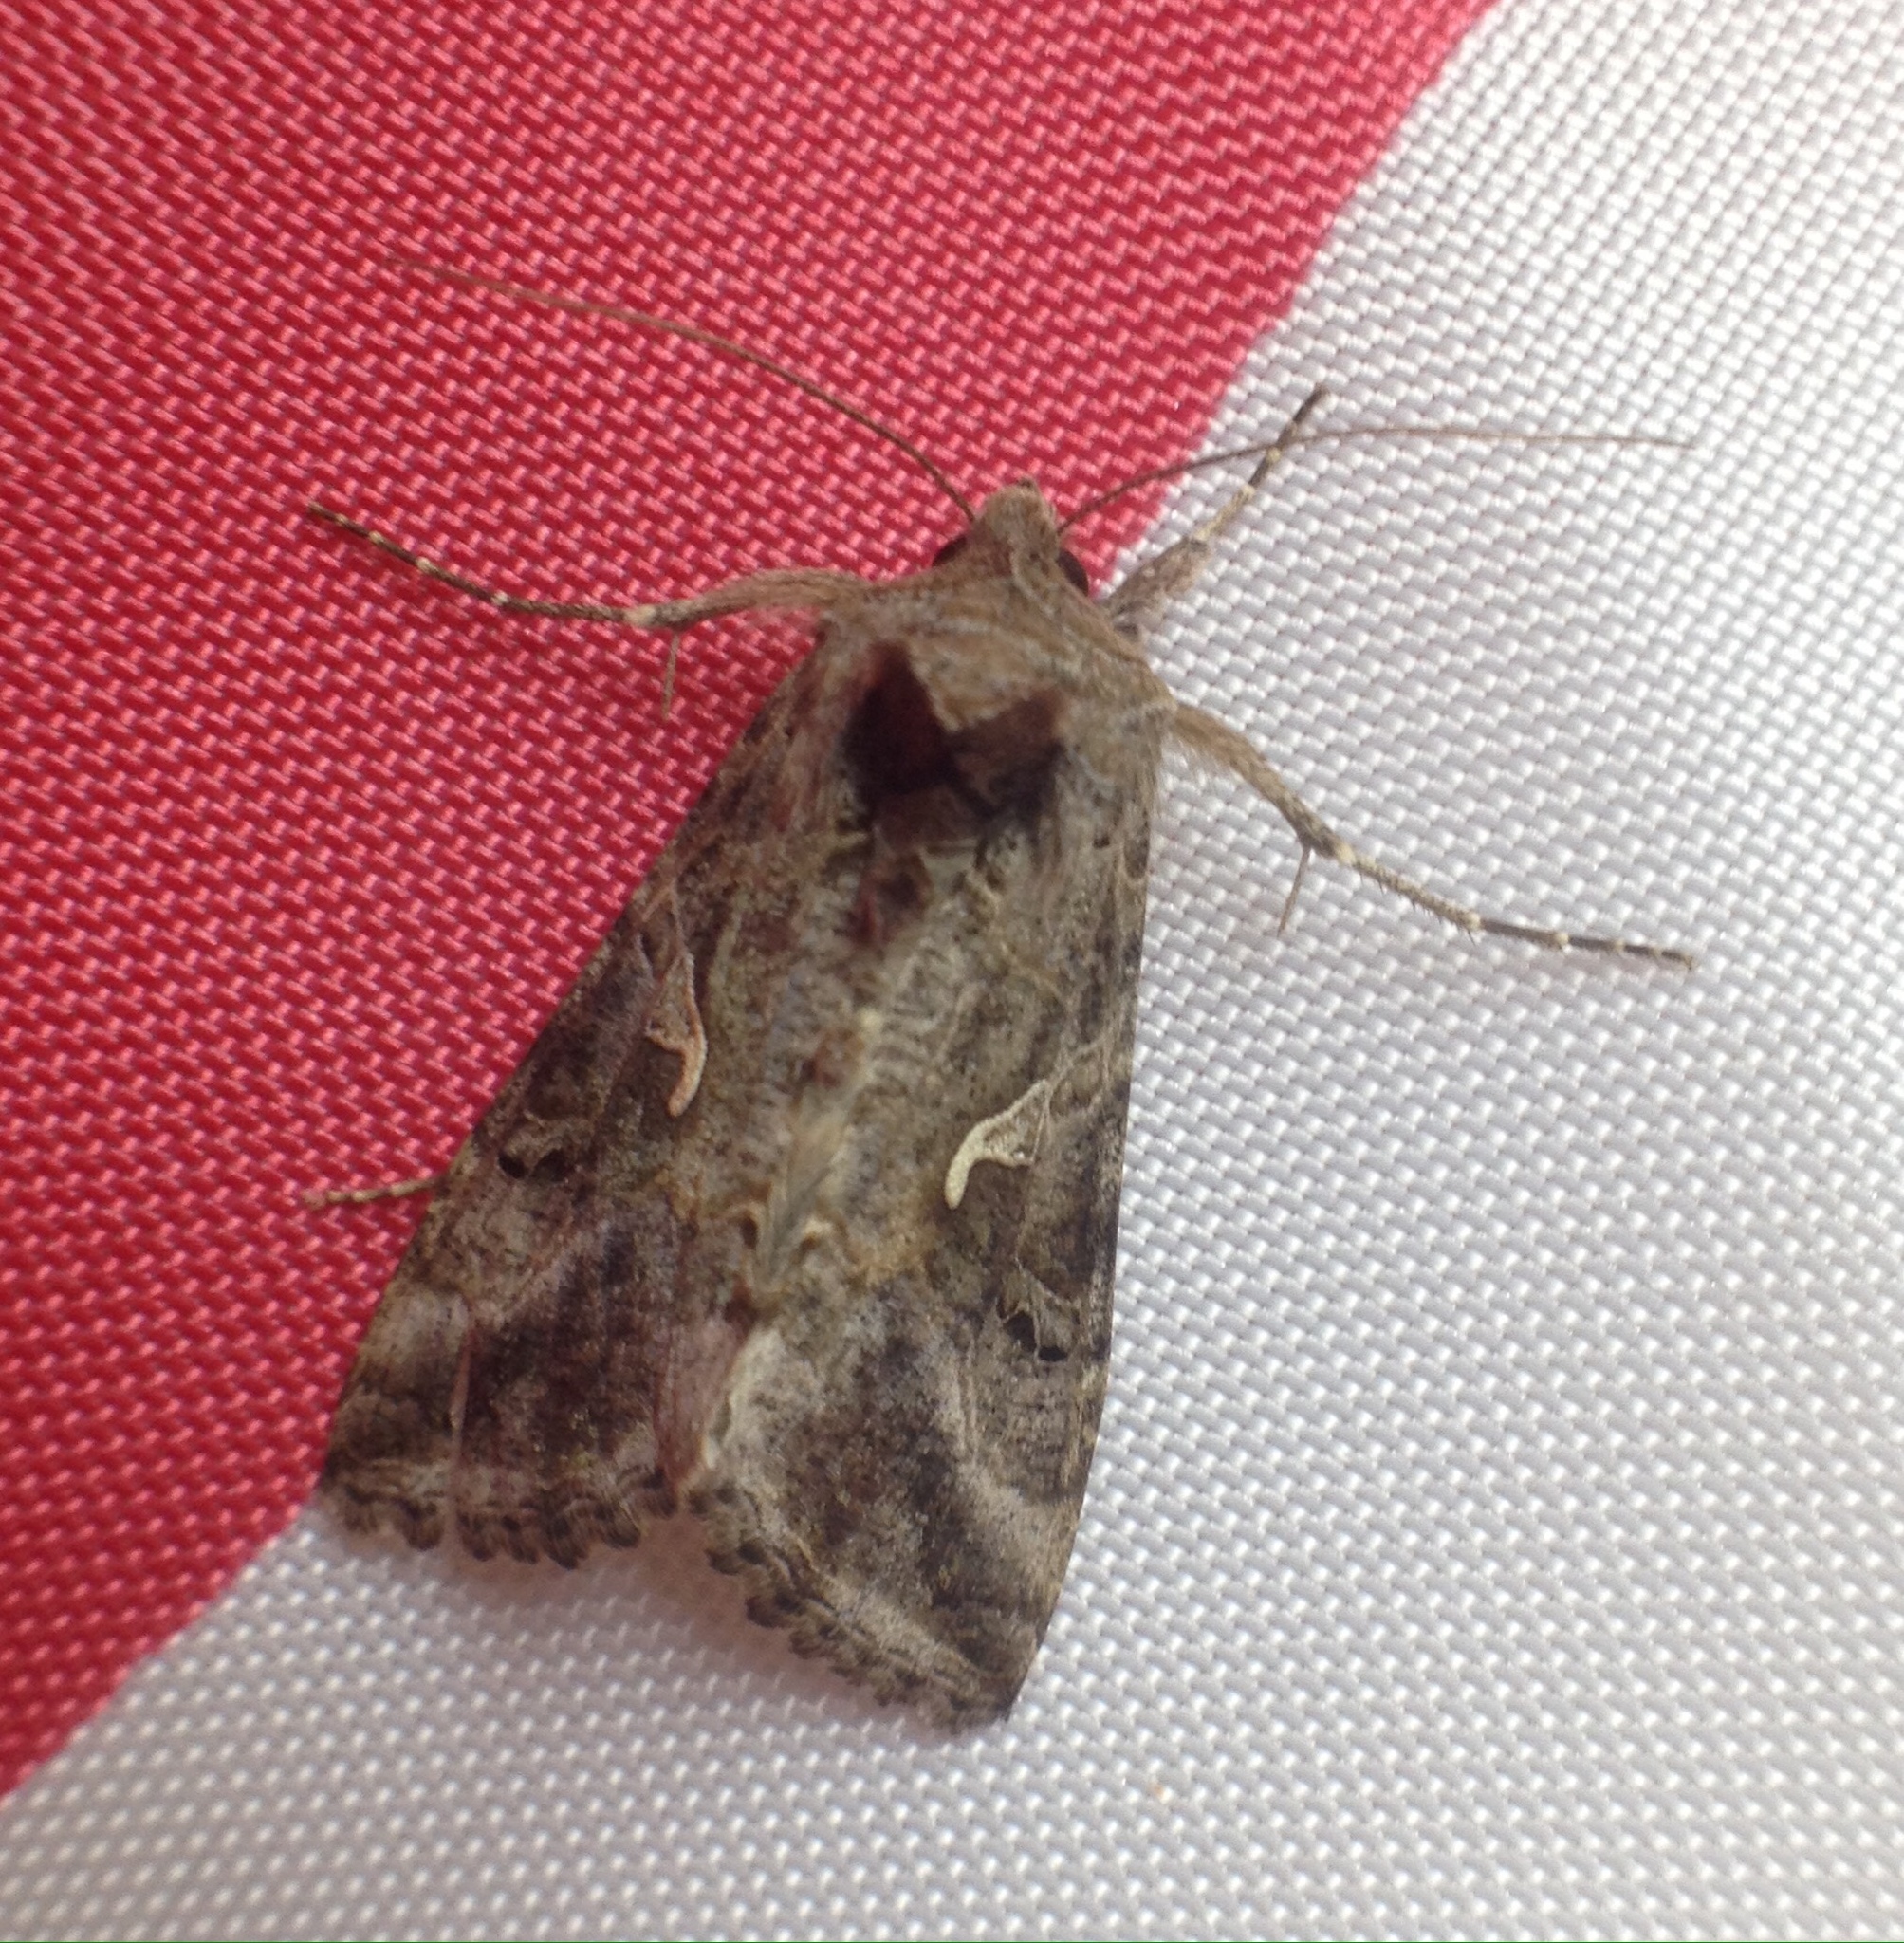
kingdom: Animalia
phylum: Arthropoda
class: Insecta
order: Lepidoptera
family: Noctuidae
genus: Autographa
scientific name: Autographa gamma
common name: Silver y
